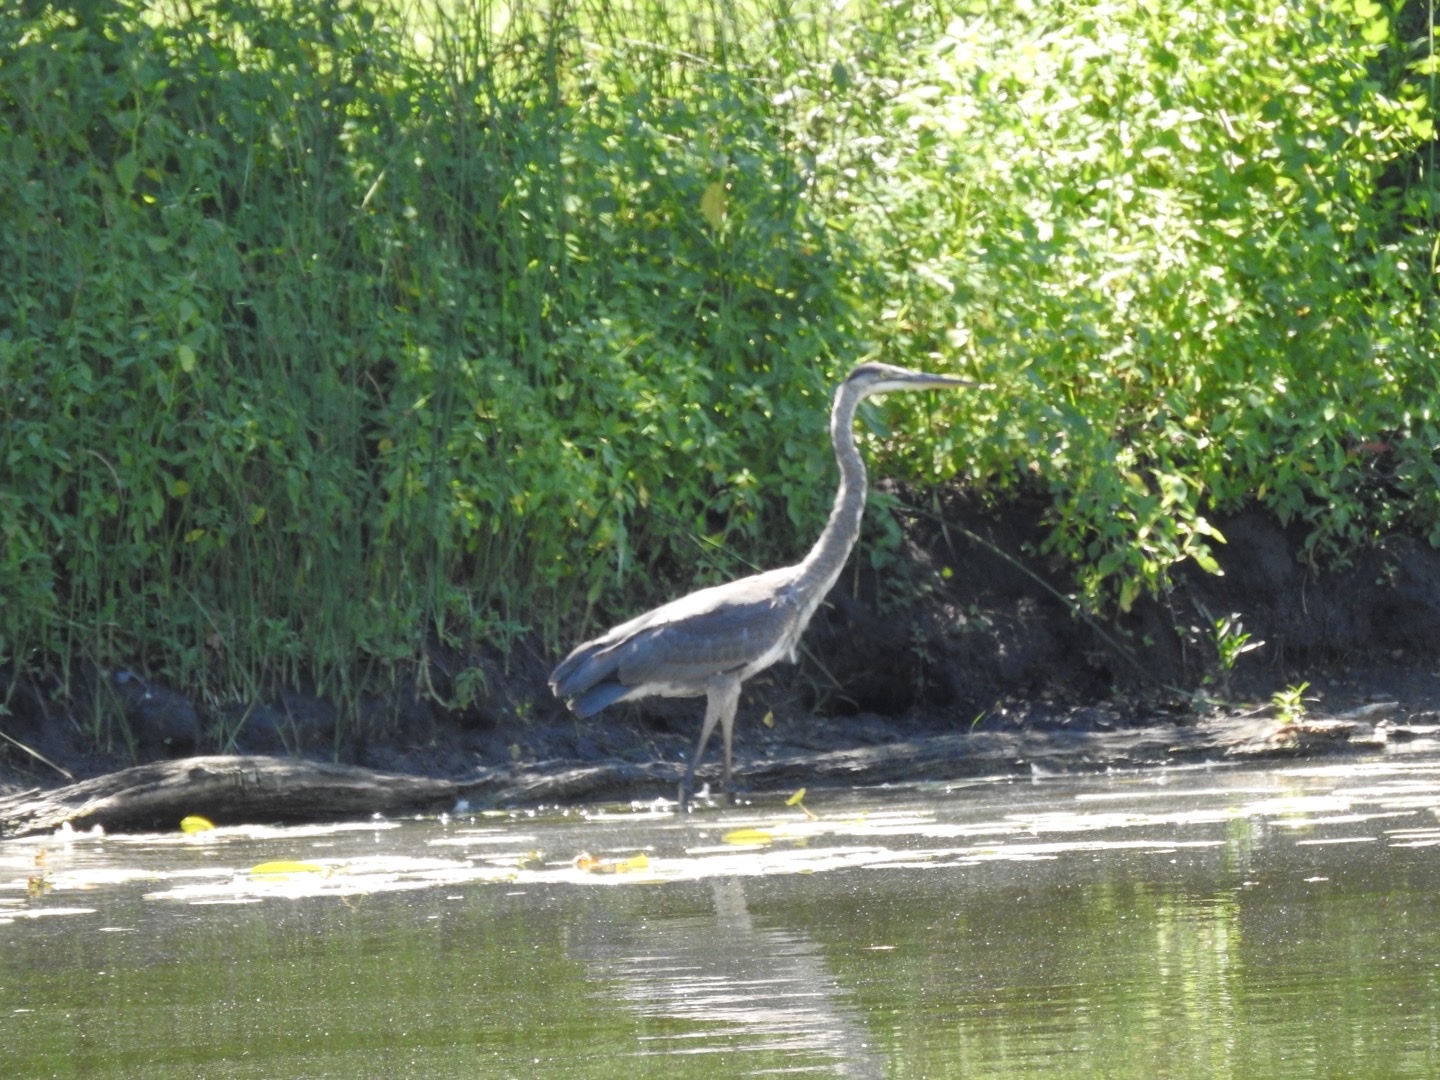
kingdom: Animalia
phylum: Chordata
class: Aves
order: Pelecaniformes
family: Ardeidae
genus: Ardea
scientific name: Ardea herodias
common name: Great blue heron
